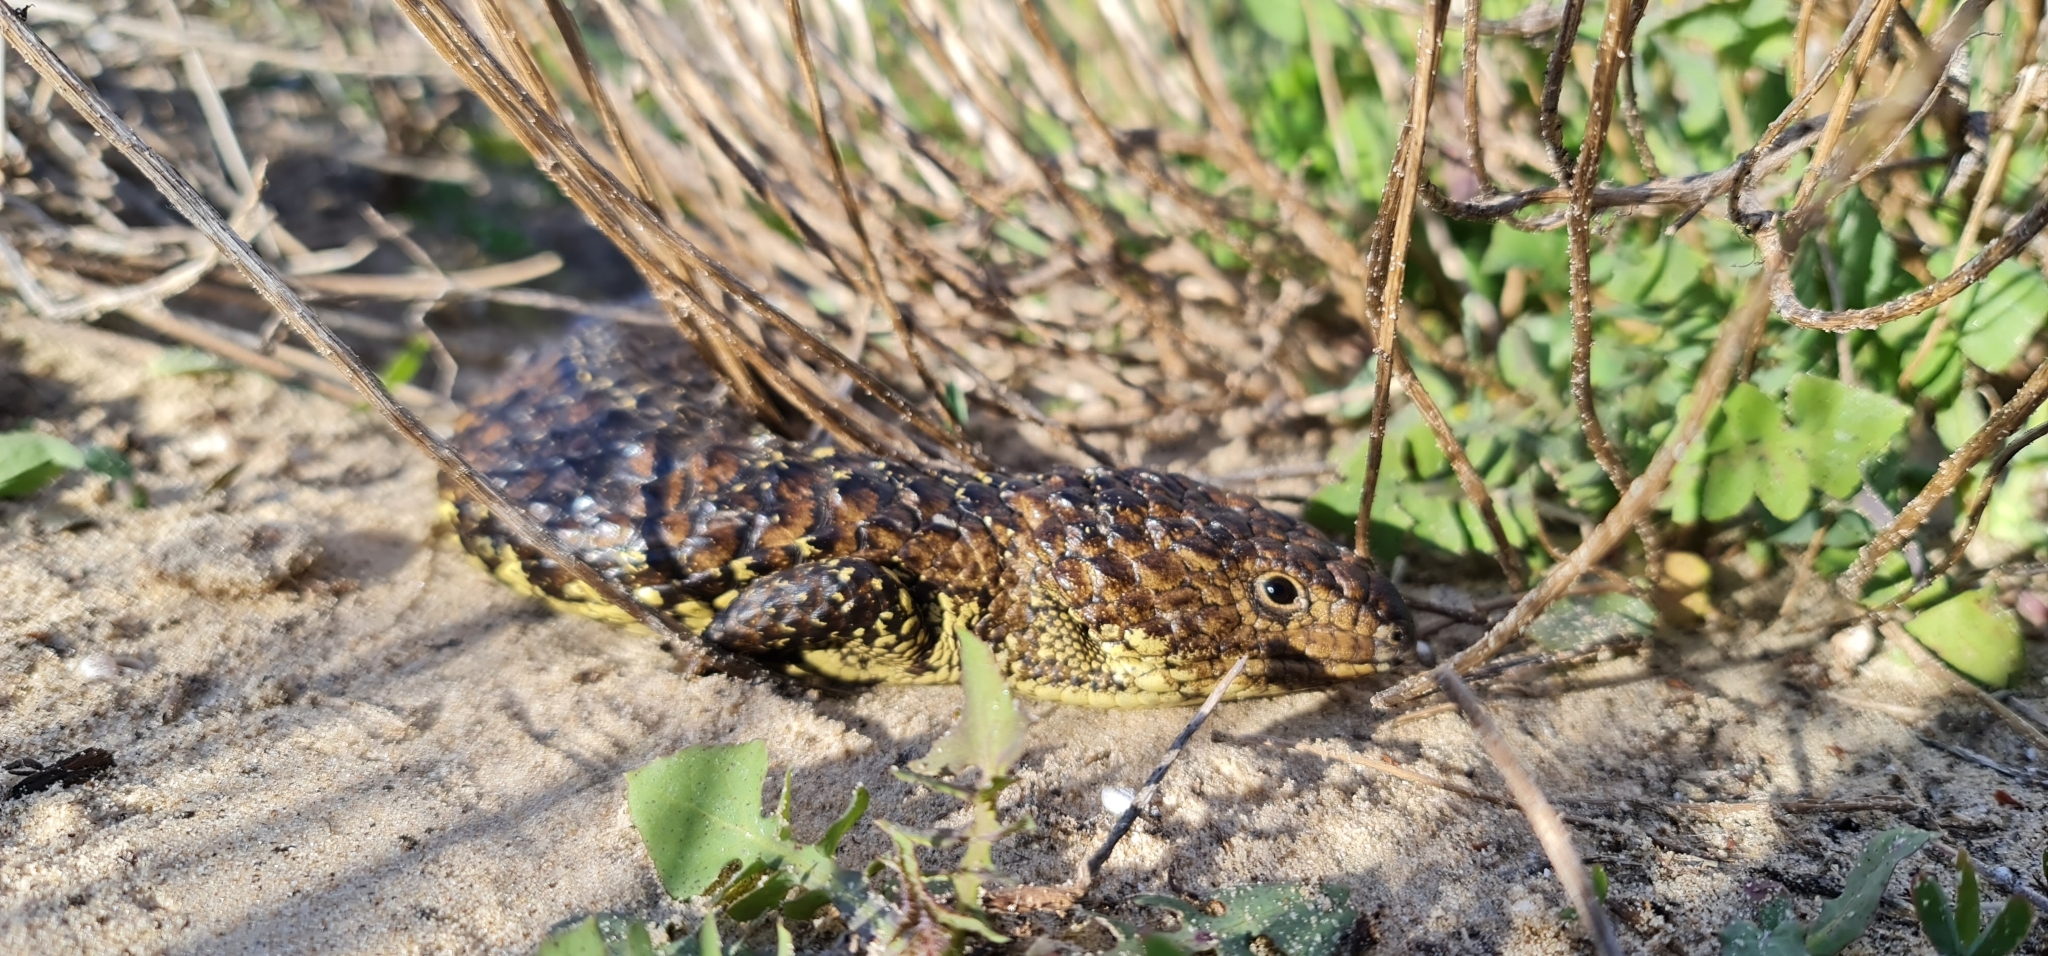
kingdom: Animalia
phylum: Chordata
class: Squamata
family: Scincidae
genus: Tiliqua
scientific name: Tiliqua rugosa
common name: Pinecone lizard
